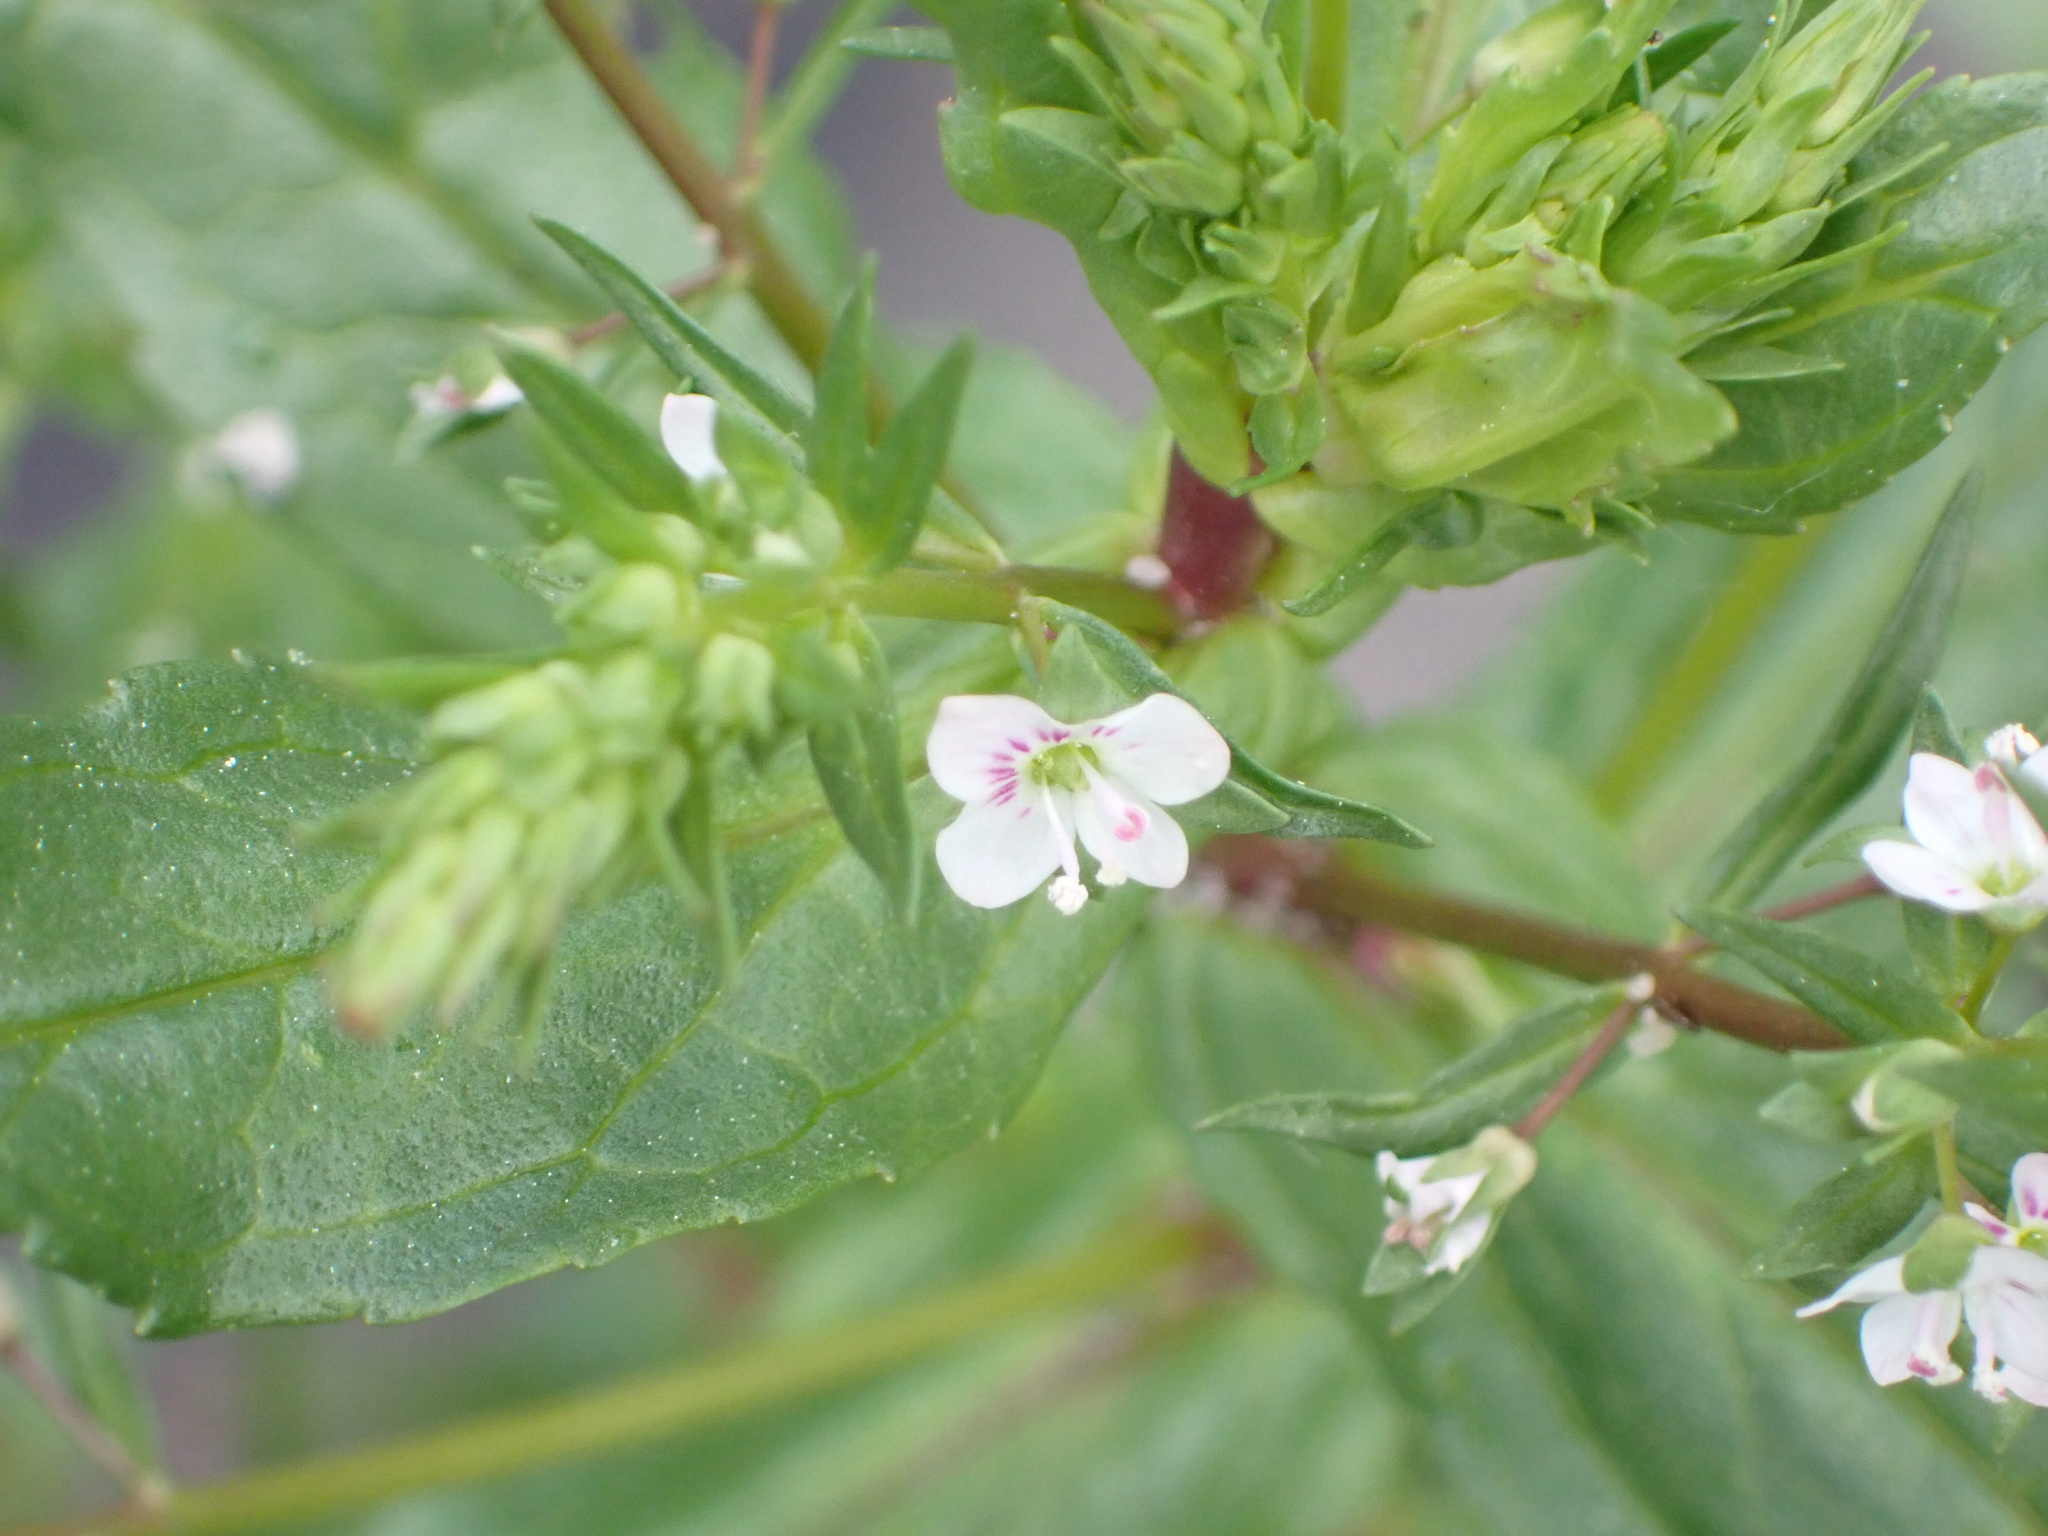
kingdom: Plantae
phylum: Tracheophyta
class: Magnoliopsida
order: Lamiales
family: Plantaginaceae
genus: Veronica
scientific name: Veronica anagallis-aquatica
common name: Water speedwell
